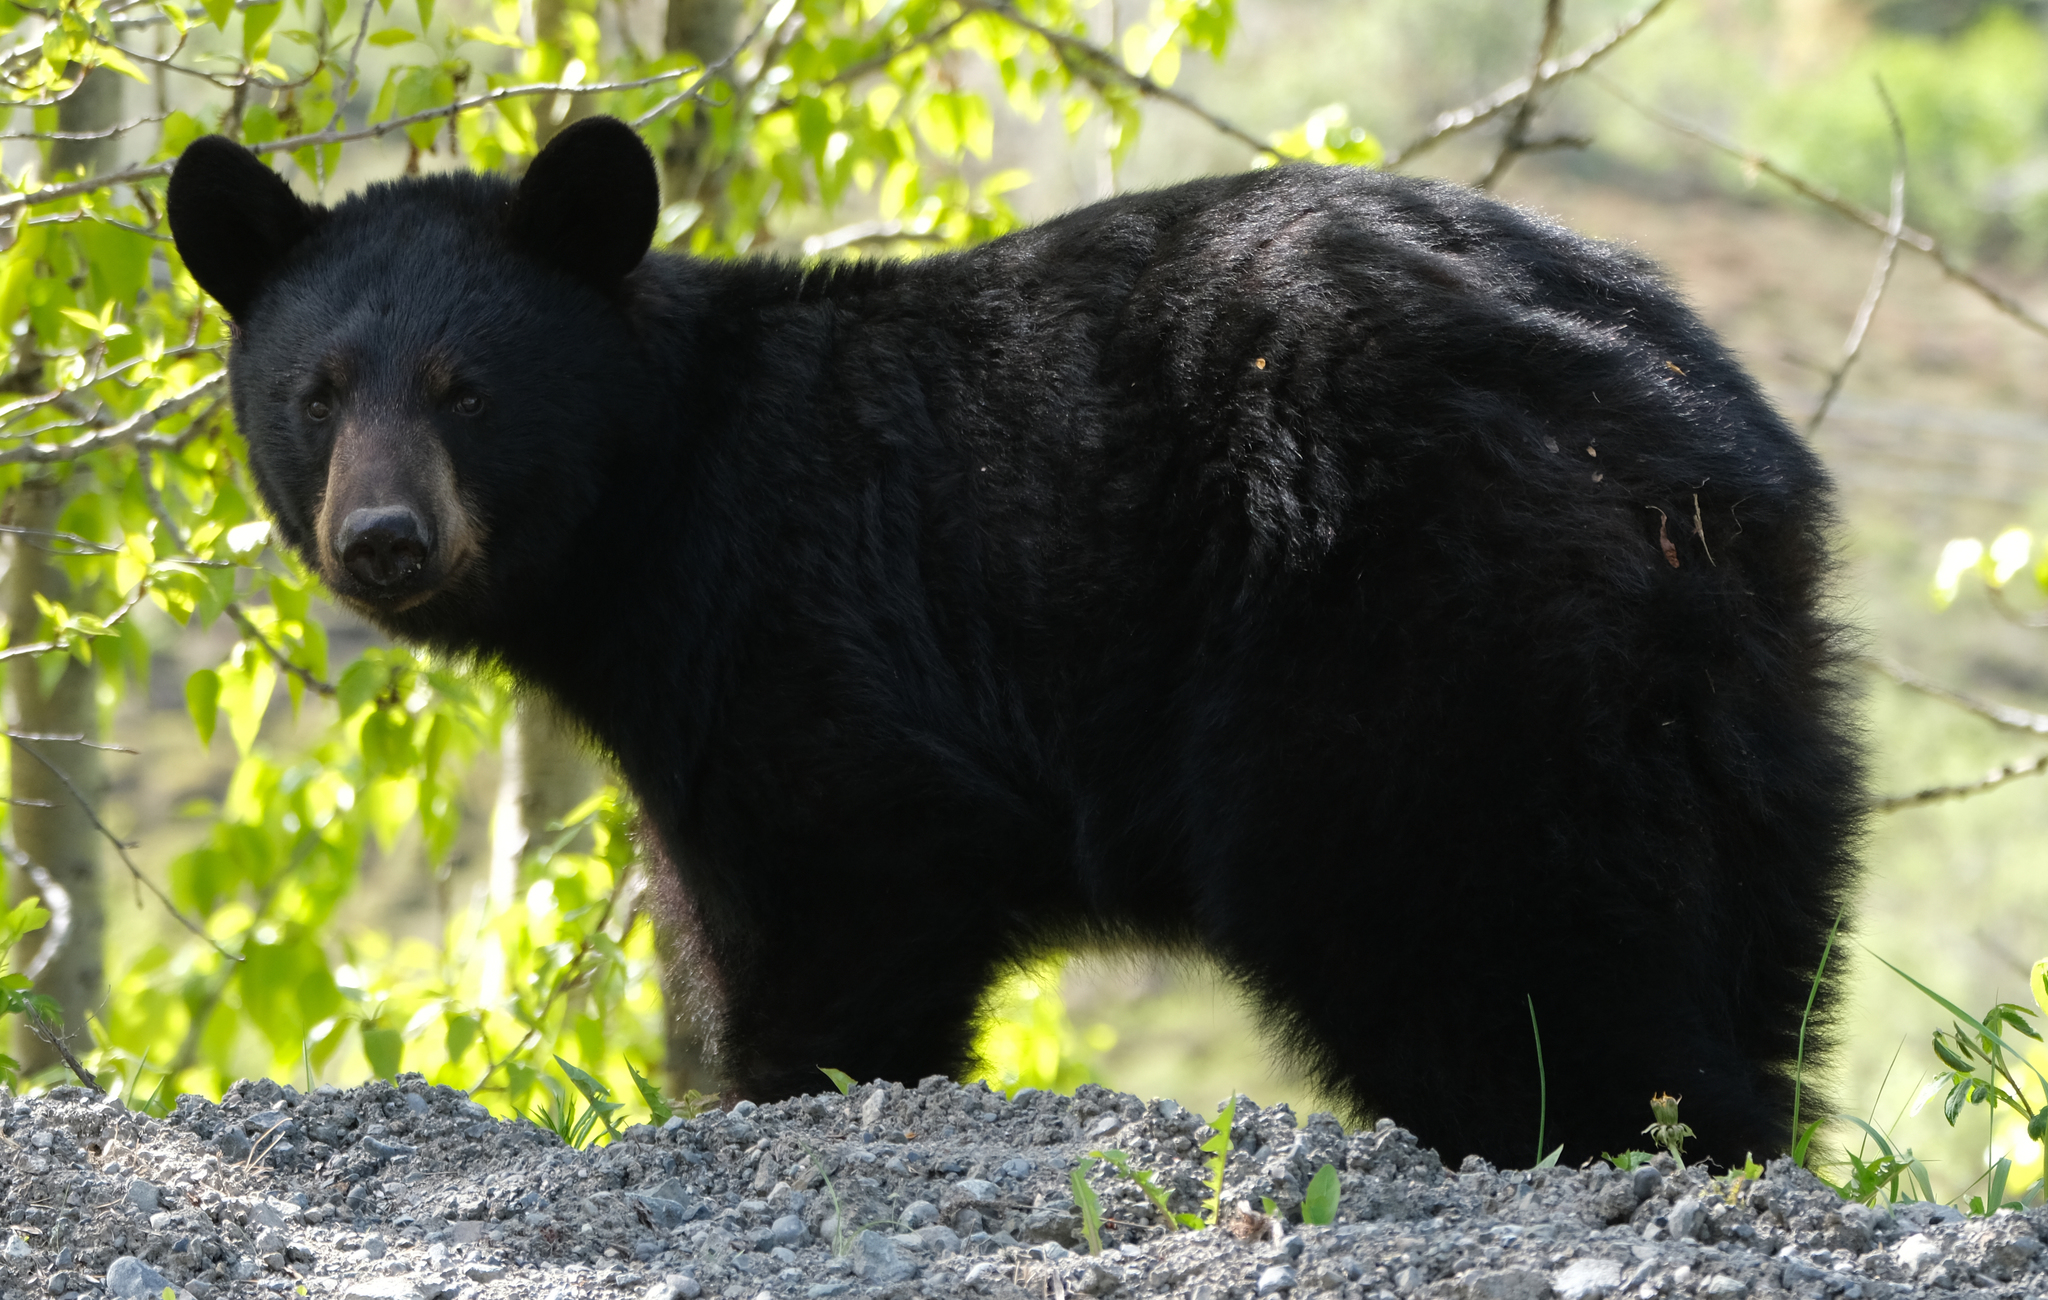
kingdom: Animalia
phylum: Chordata
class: Mammalia
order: Carnivora
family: Ursidae
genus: Ursus
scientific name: Ursus americanus
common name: American black bear
